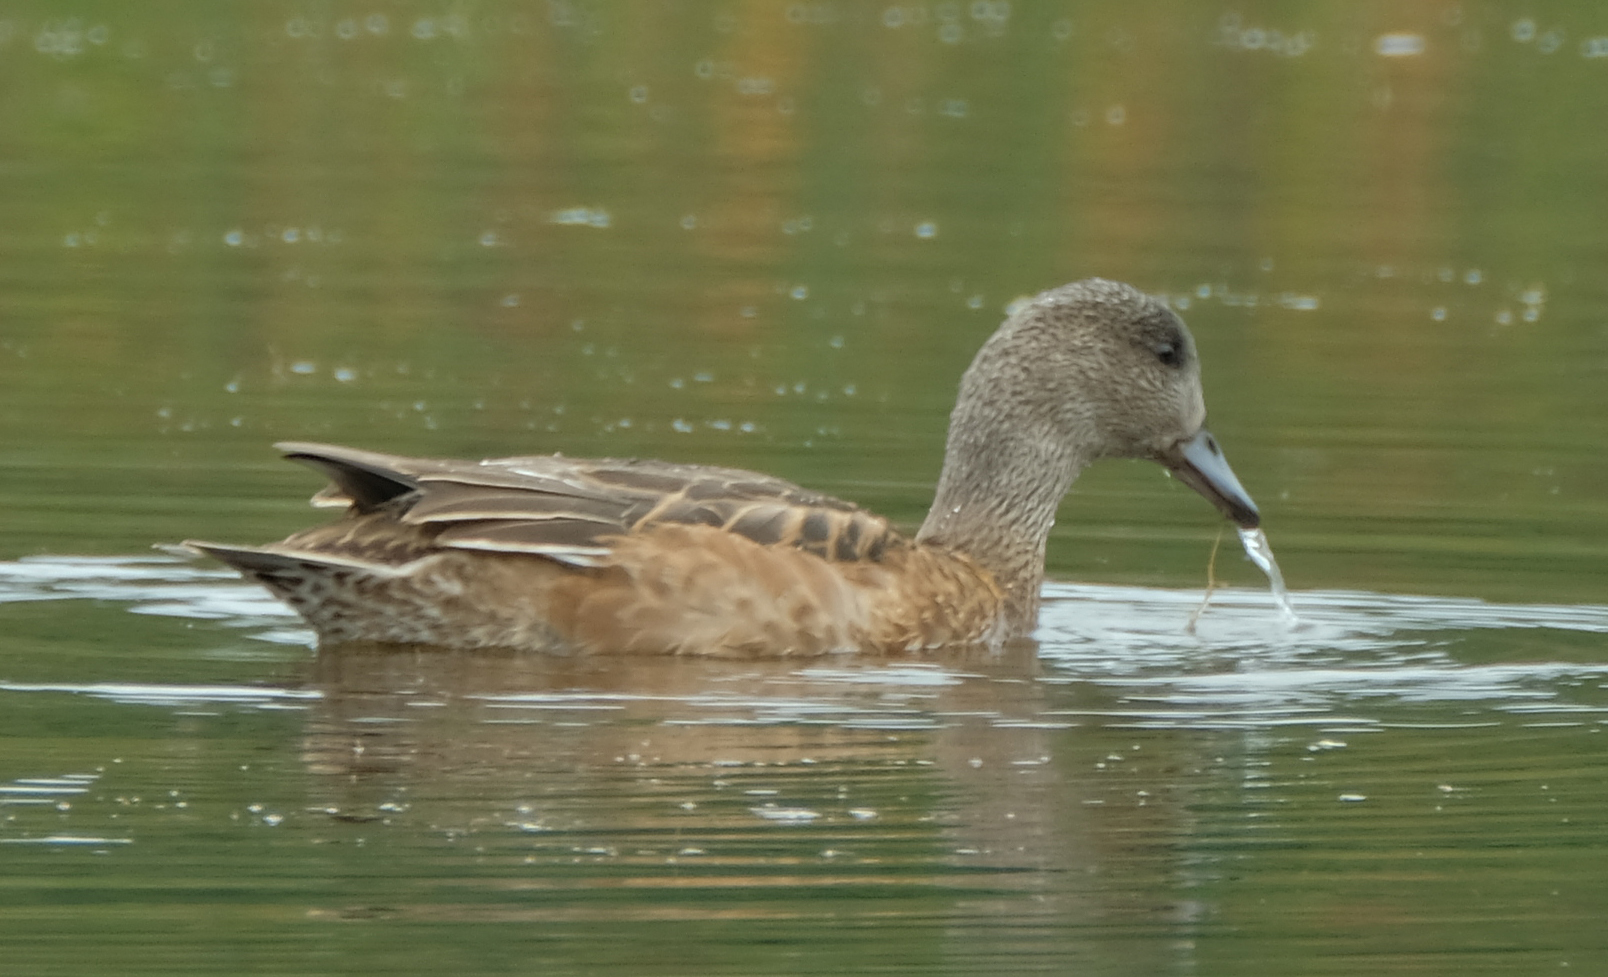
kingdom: Animalia
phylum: Chordata
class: Aves
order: Anseriformes
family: Anatidae
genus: Mareca
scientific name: Mareca americana
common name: American wigeon
